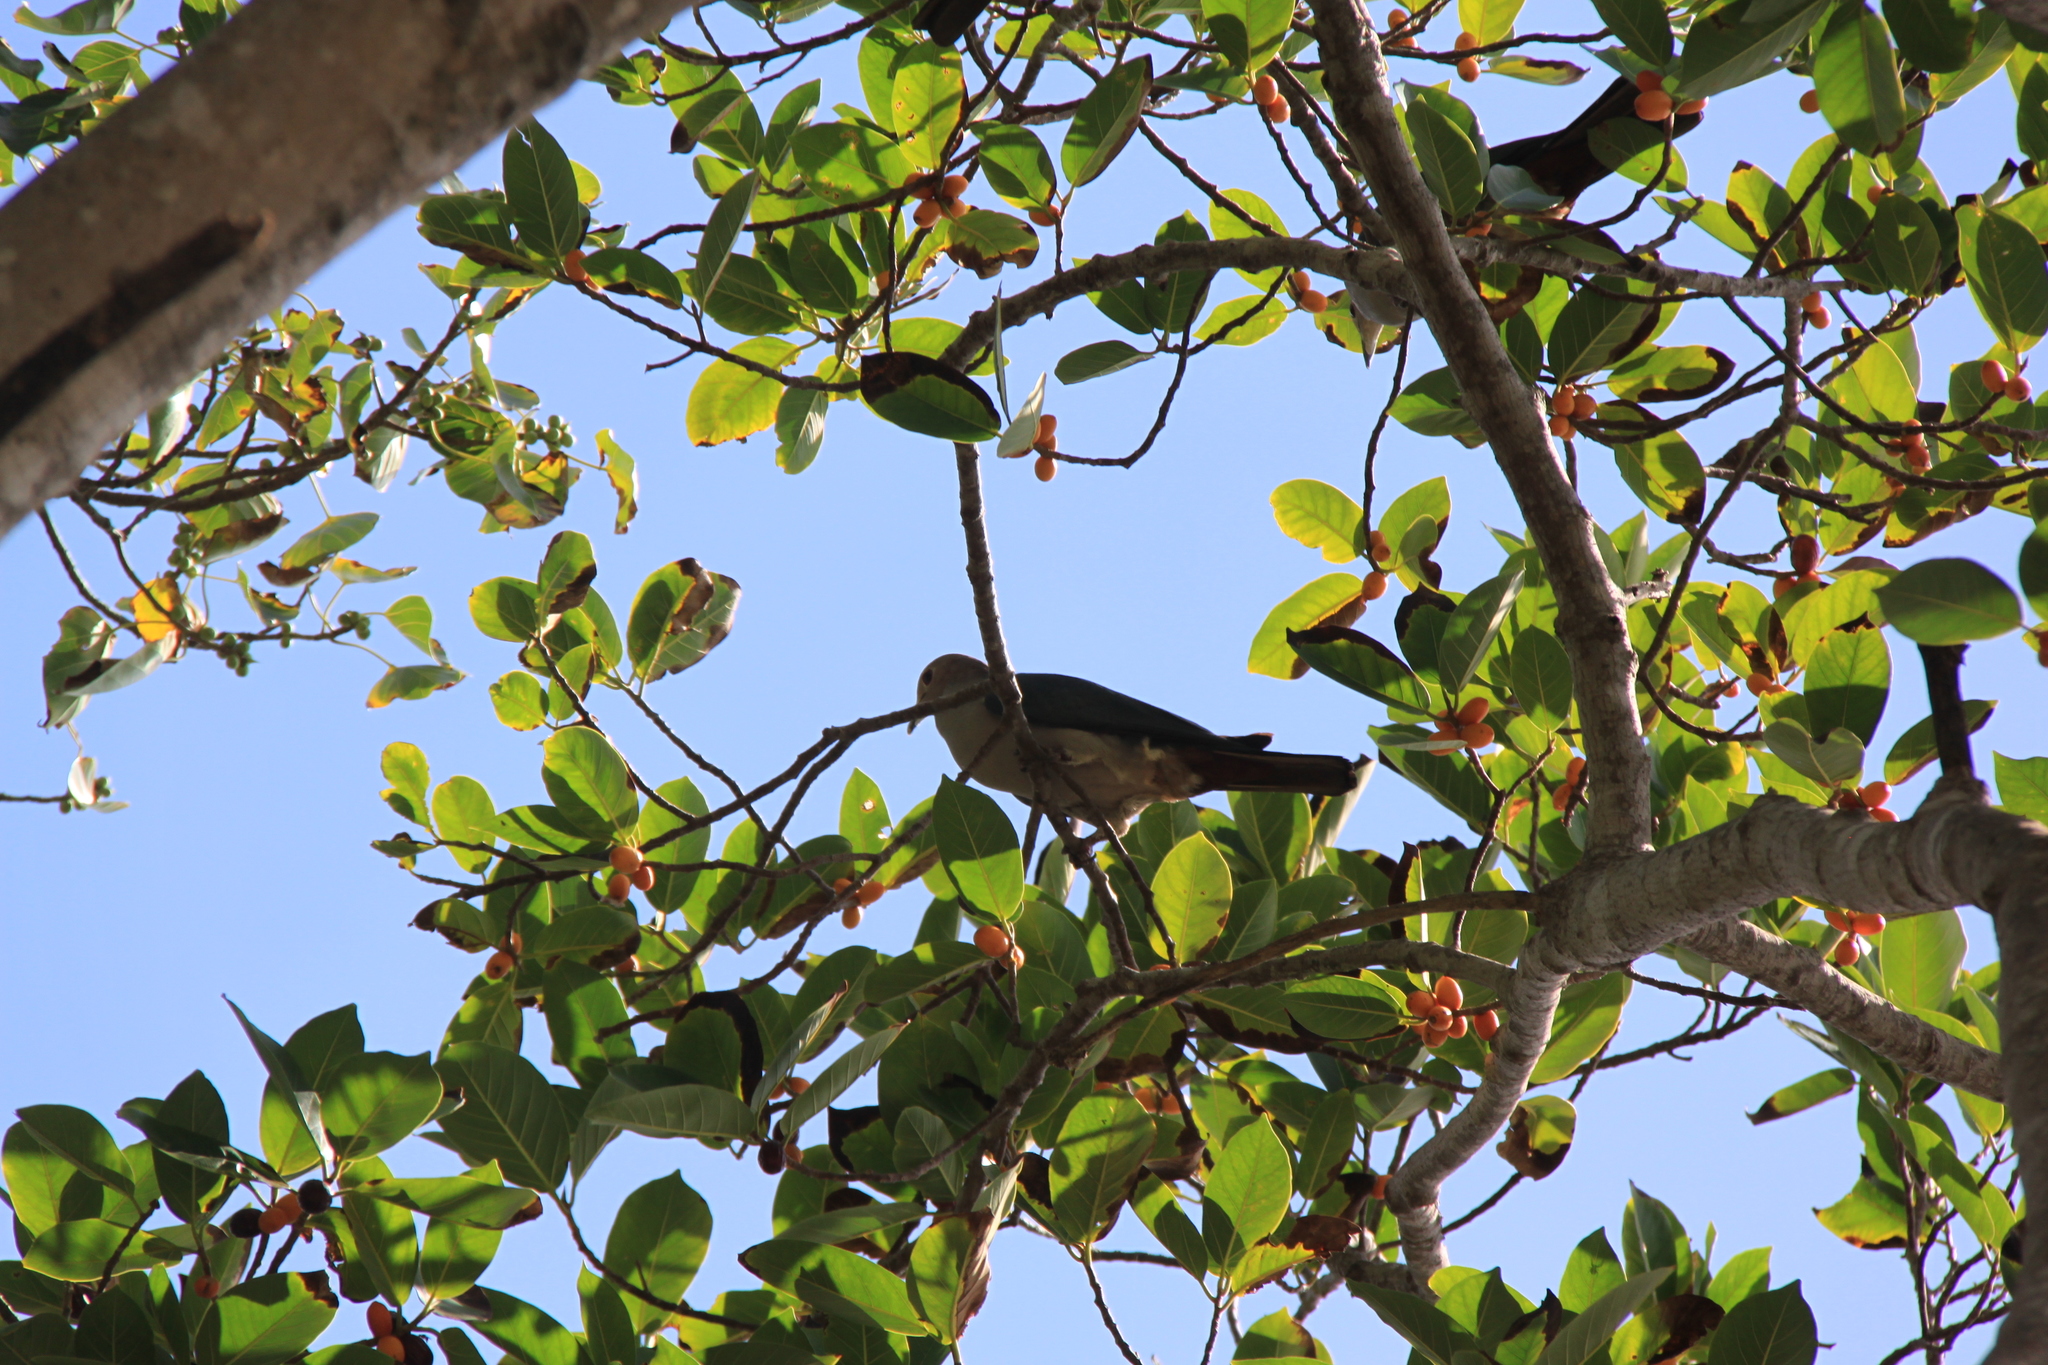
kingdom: Animalia
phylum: Chordata
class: Aves
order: Columbiformes
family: Columbidae
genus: Ducula
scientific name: Ducula aenea
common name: Green imperial pigeon
